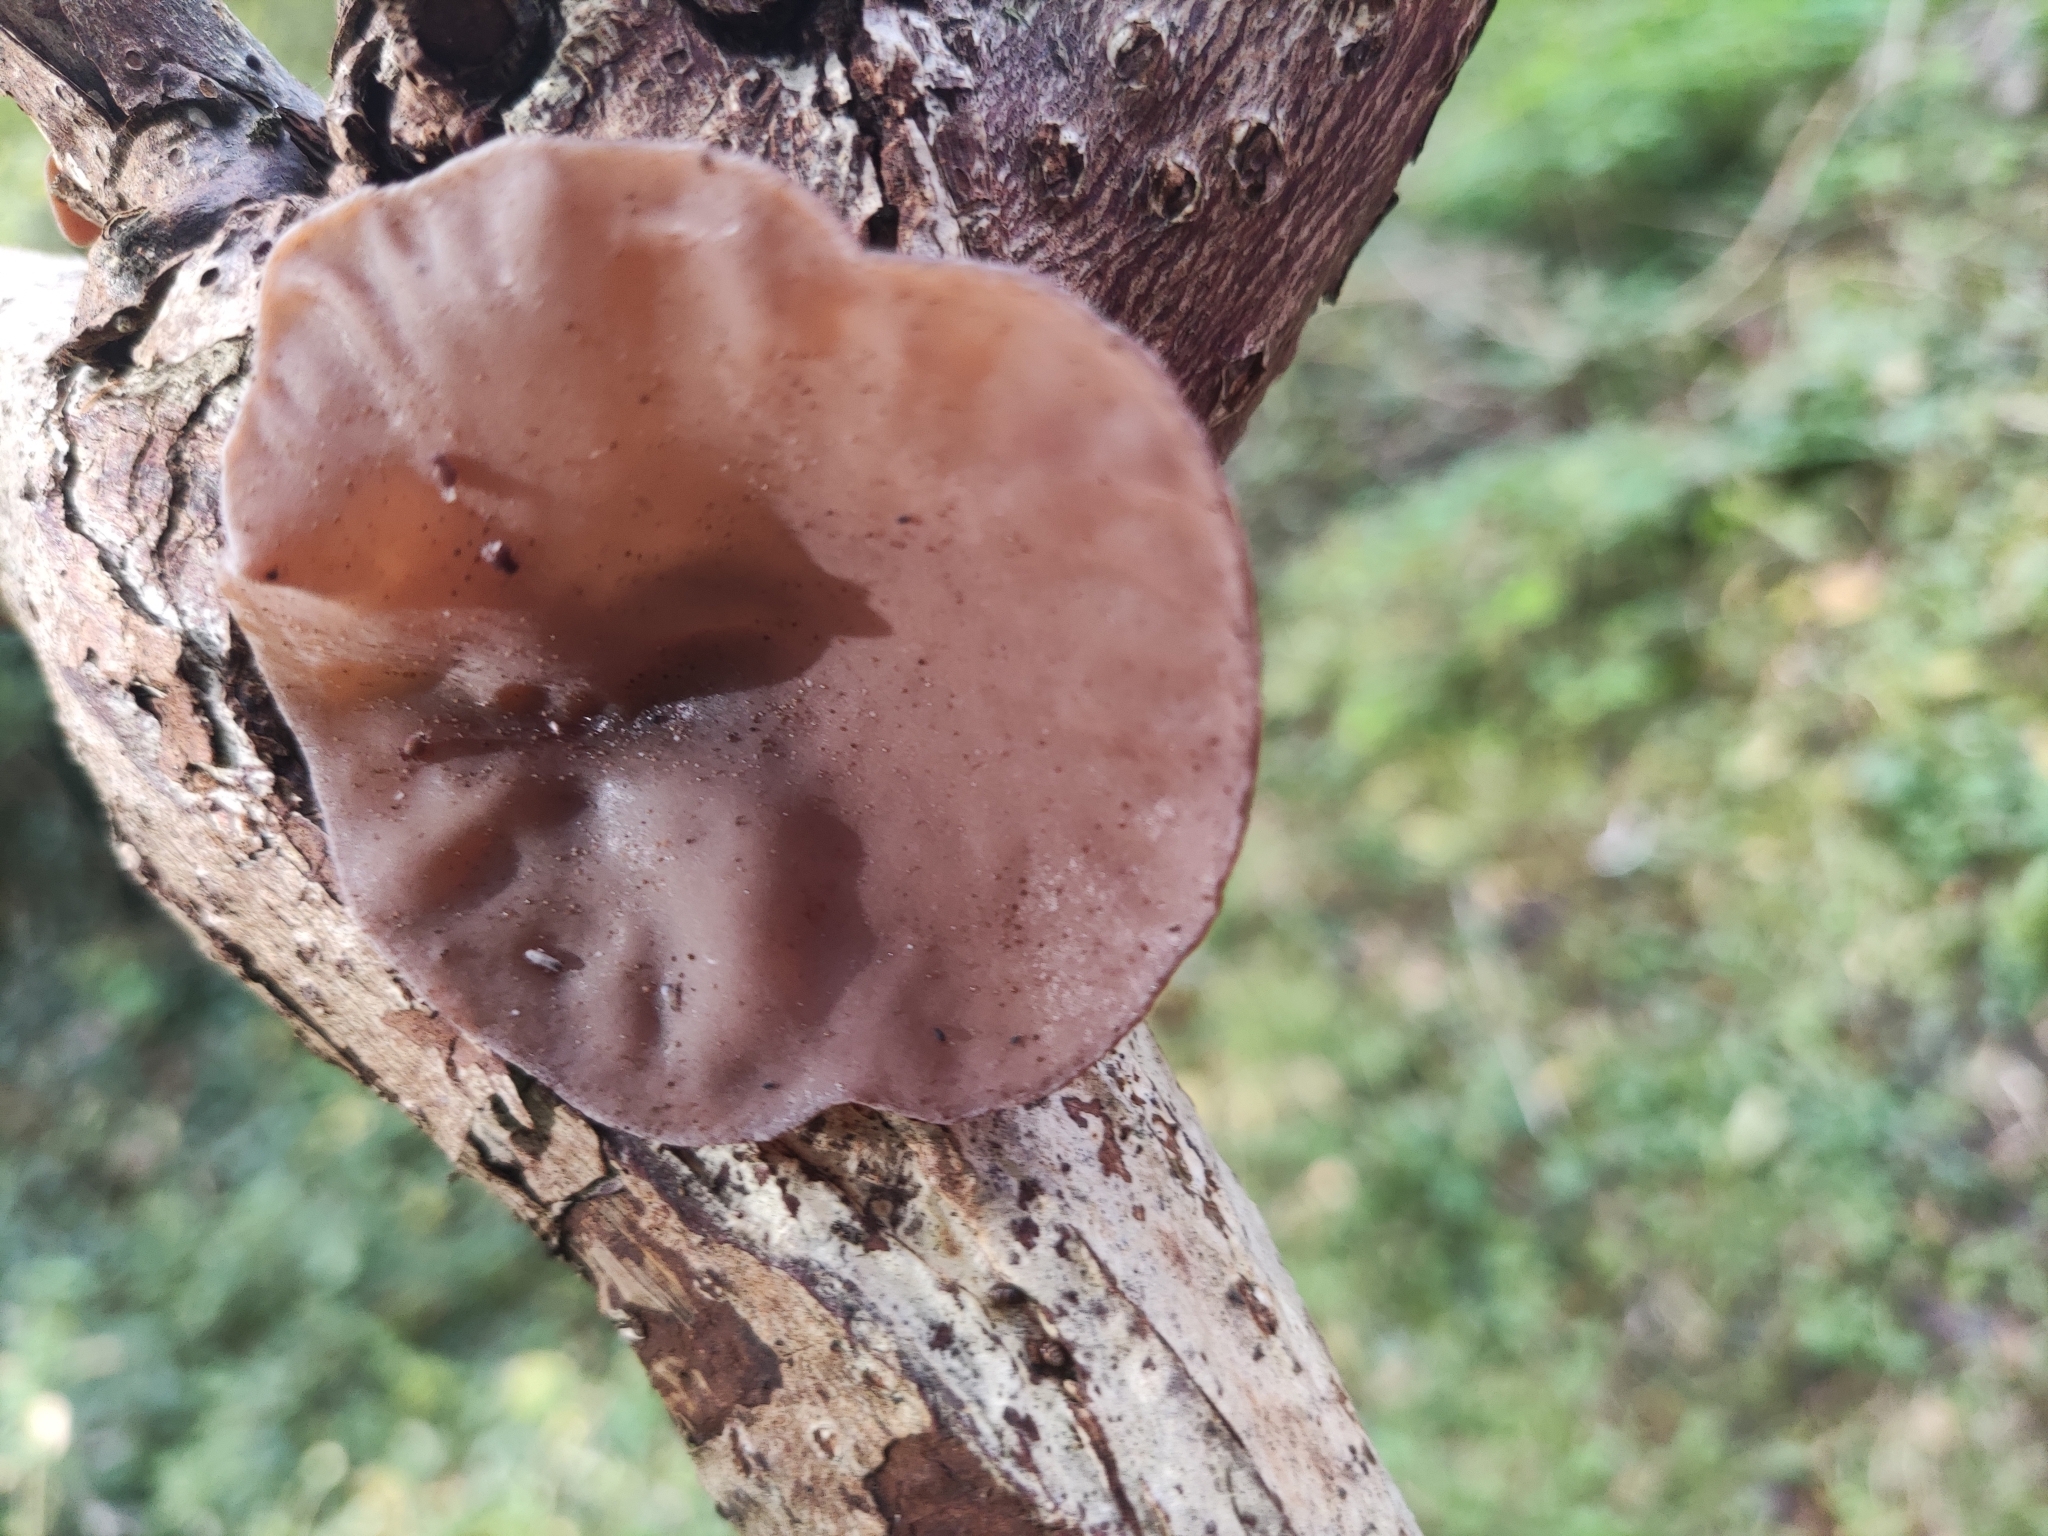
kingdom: Fungi
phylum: Basidiomycota
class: Agaricomycetes
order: Auriculariales
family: Auriculariaceae
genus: Auricularia
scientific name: Auricularia auricula-judae
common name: Jelly ear
